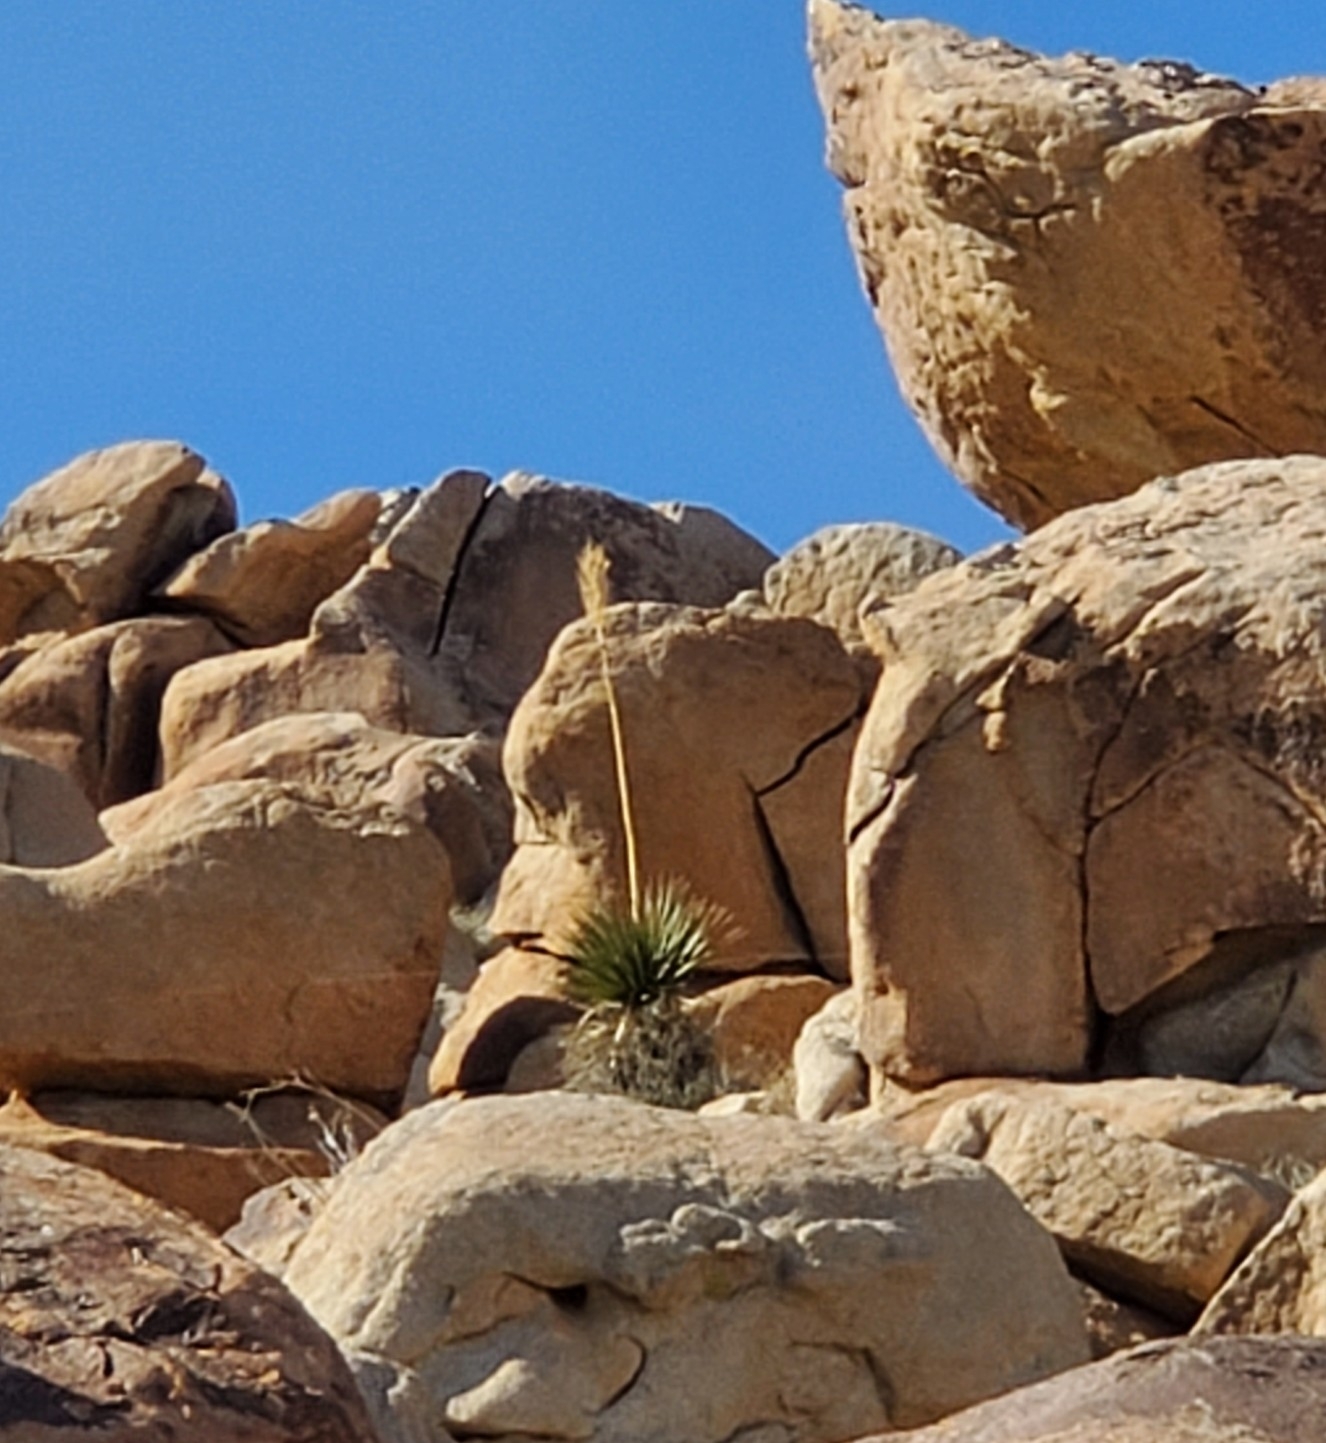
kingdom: Plantae
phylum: Tracheophyta
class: Liliopsida
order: Asparagales
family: Asparagaceae
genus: Nolina
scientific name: Nolina bigelovii
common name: Bigelow bear-grass
